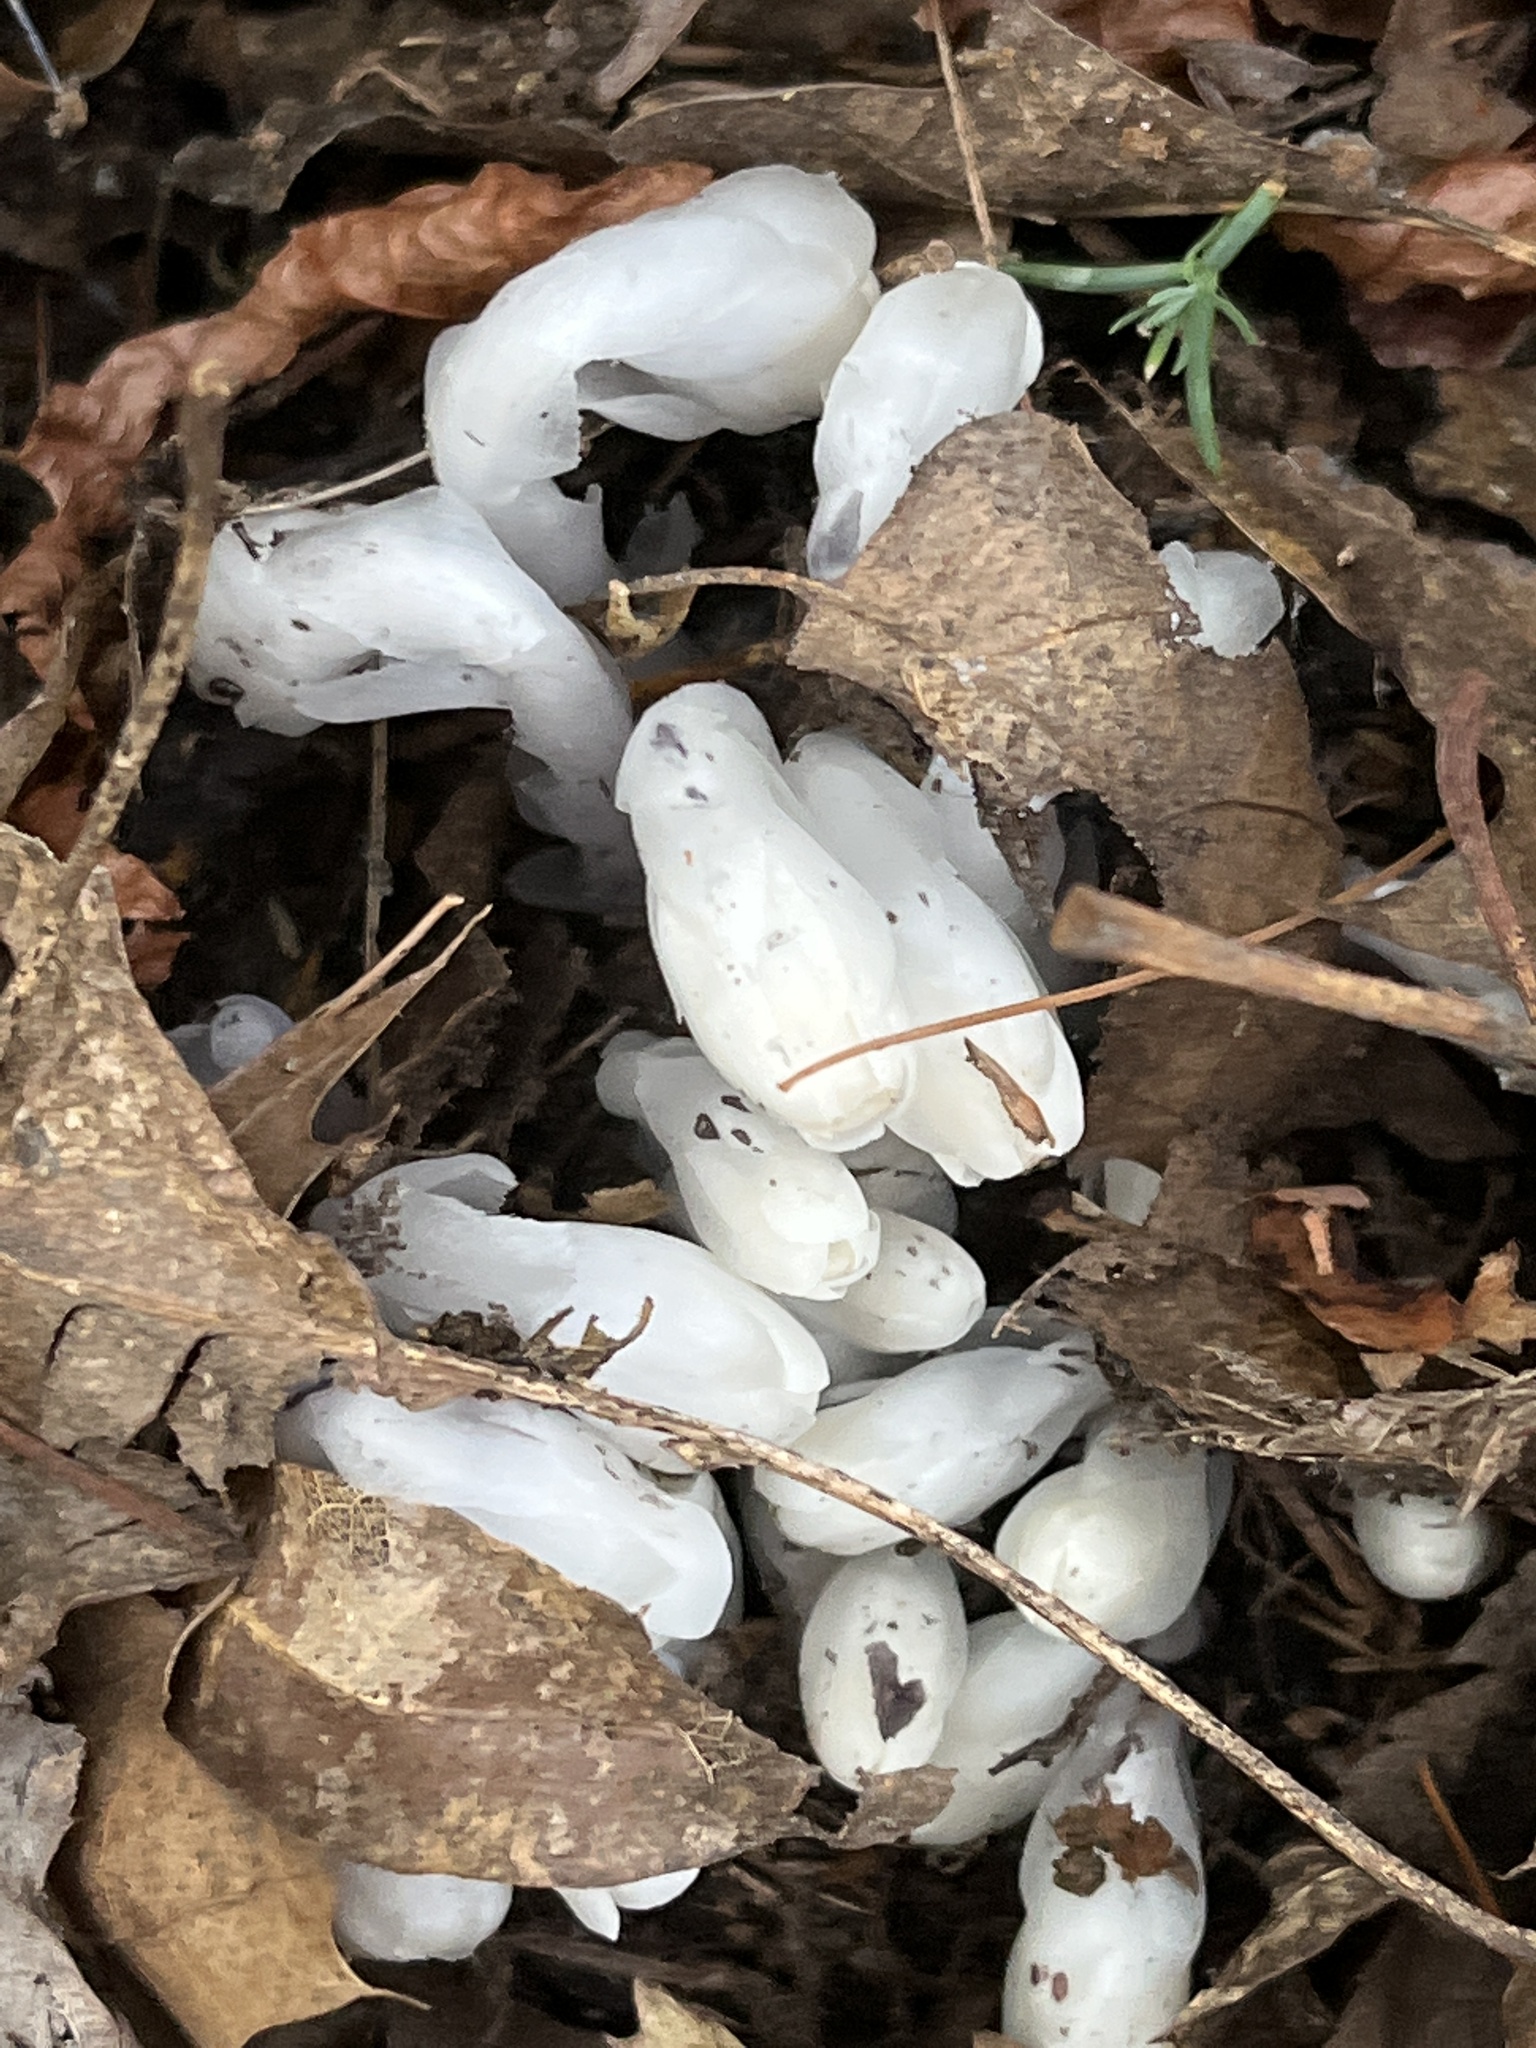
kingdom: Plantae
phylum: Tracheophyta
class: Magnoliopsida
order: Ericales
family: Ericaceae
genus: Monotropa
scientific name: Monotropa uniflora
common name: Convulsion root
